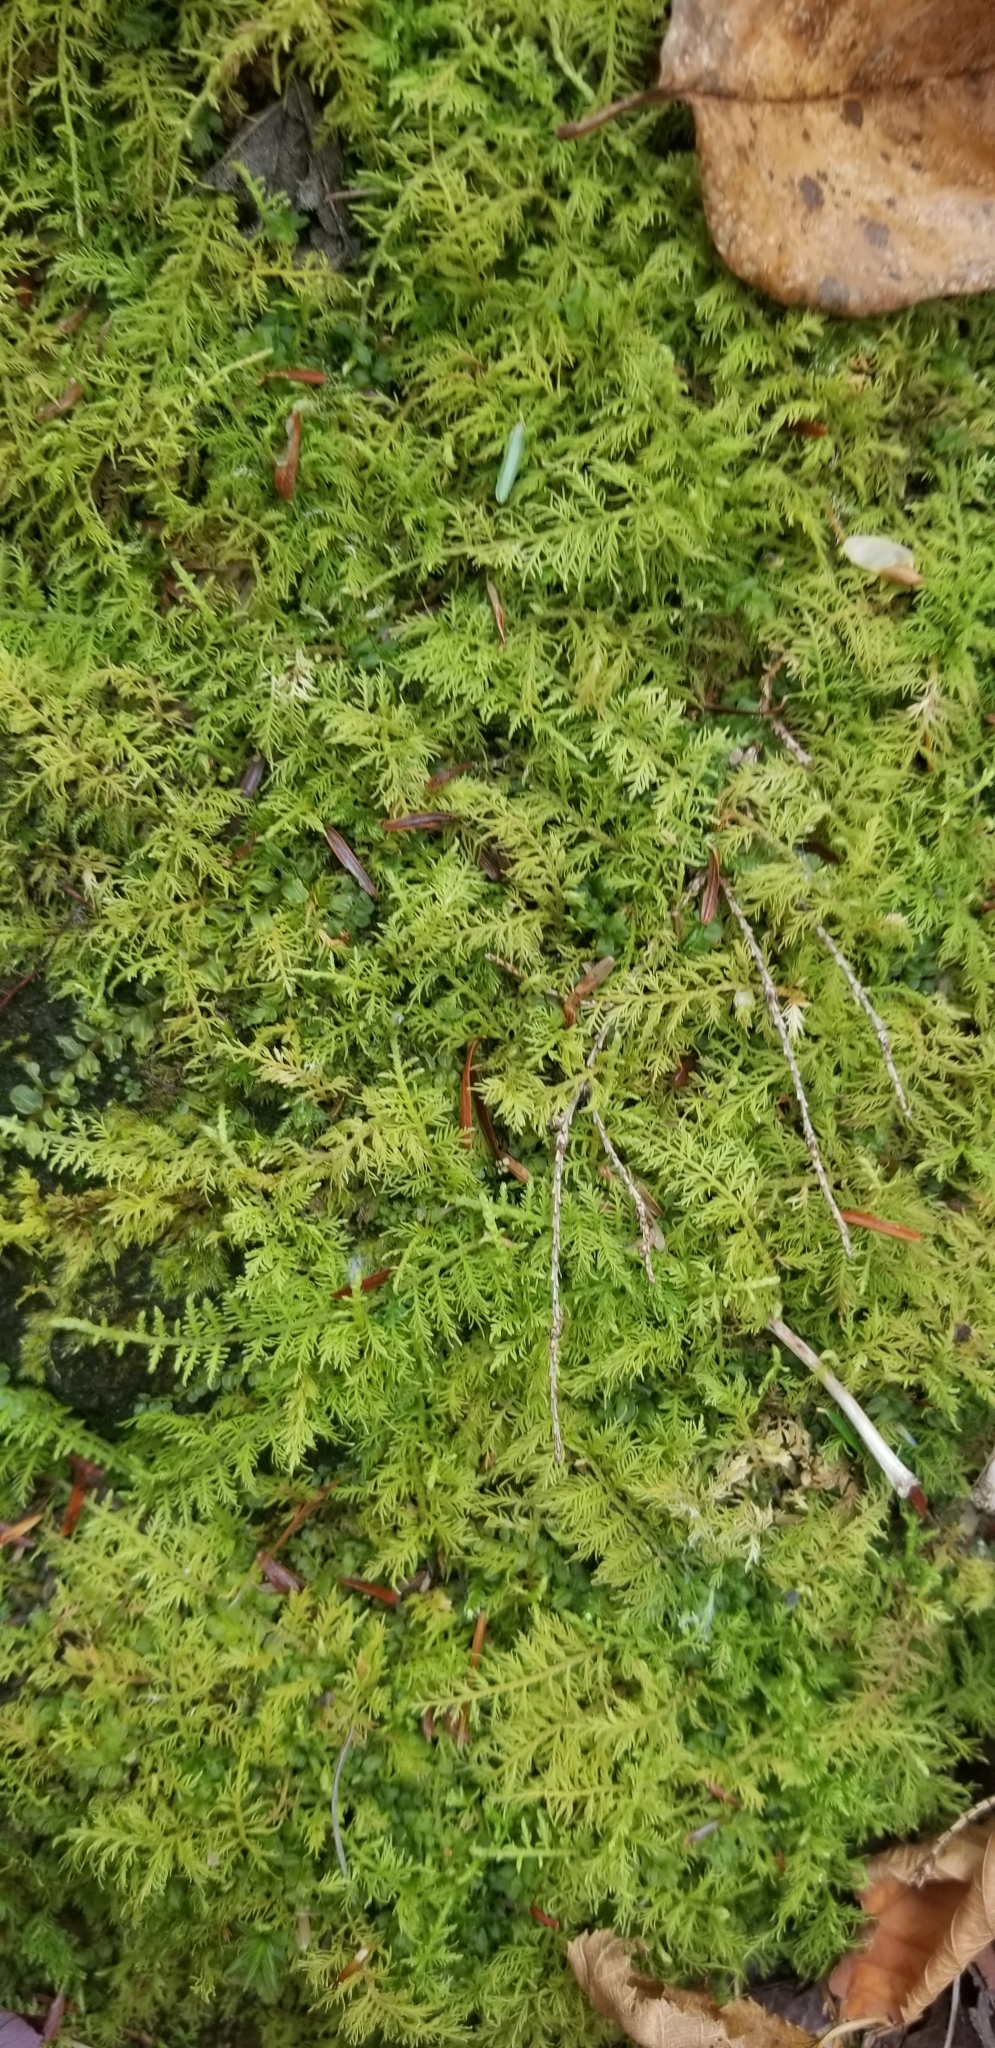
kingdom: Plantae
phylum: Bryophyta
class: Bryopsida
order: Hypnales
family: Thuidiaceae
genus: Thuidium
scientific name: Thuidium delicatulum
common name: Delicate fern moss
